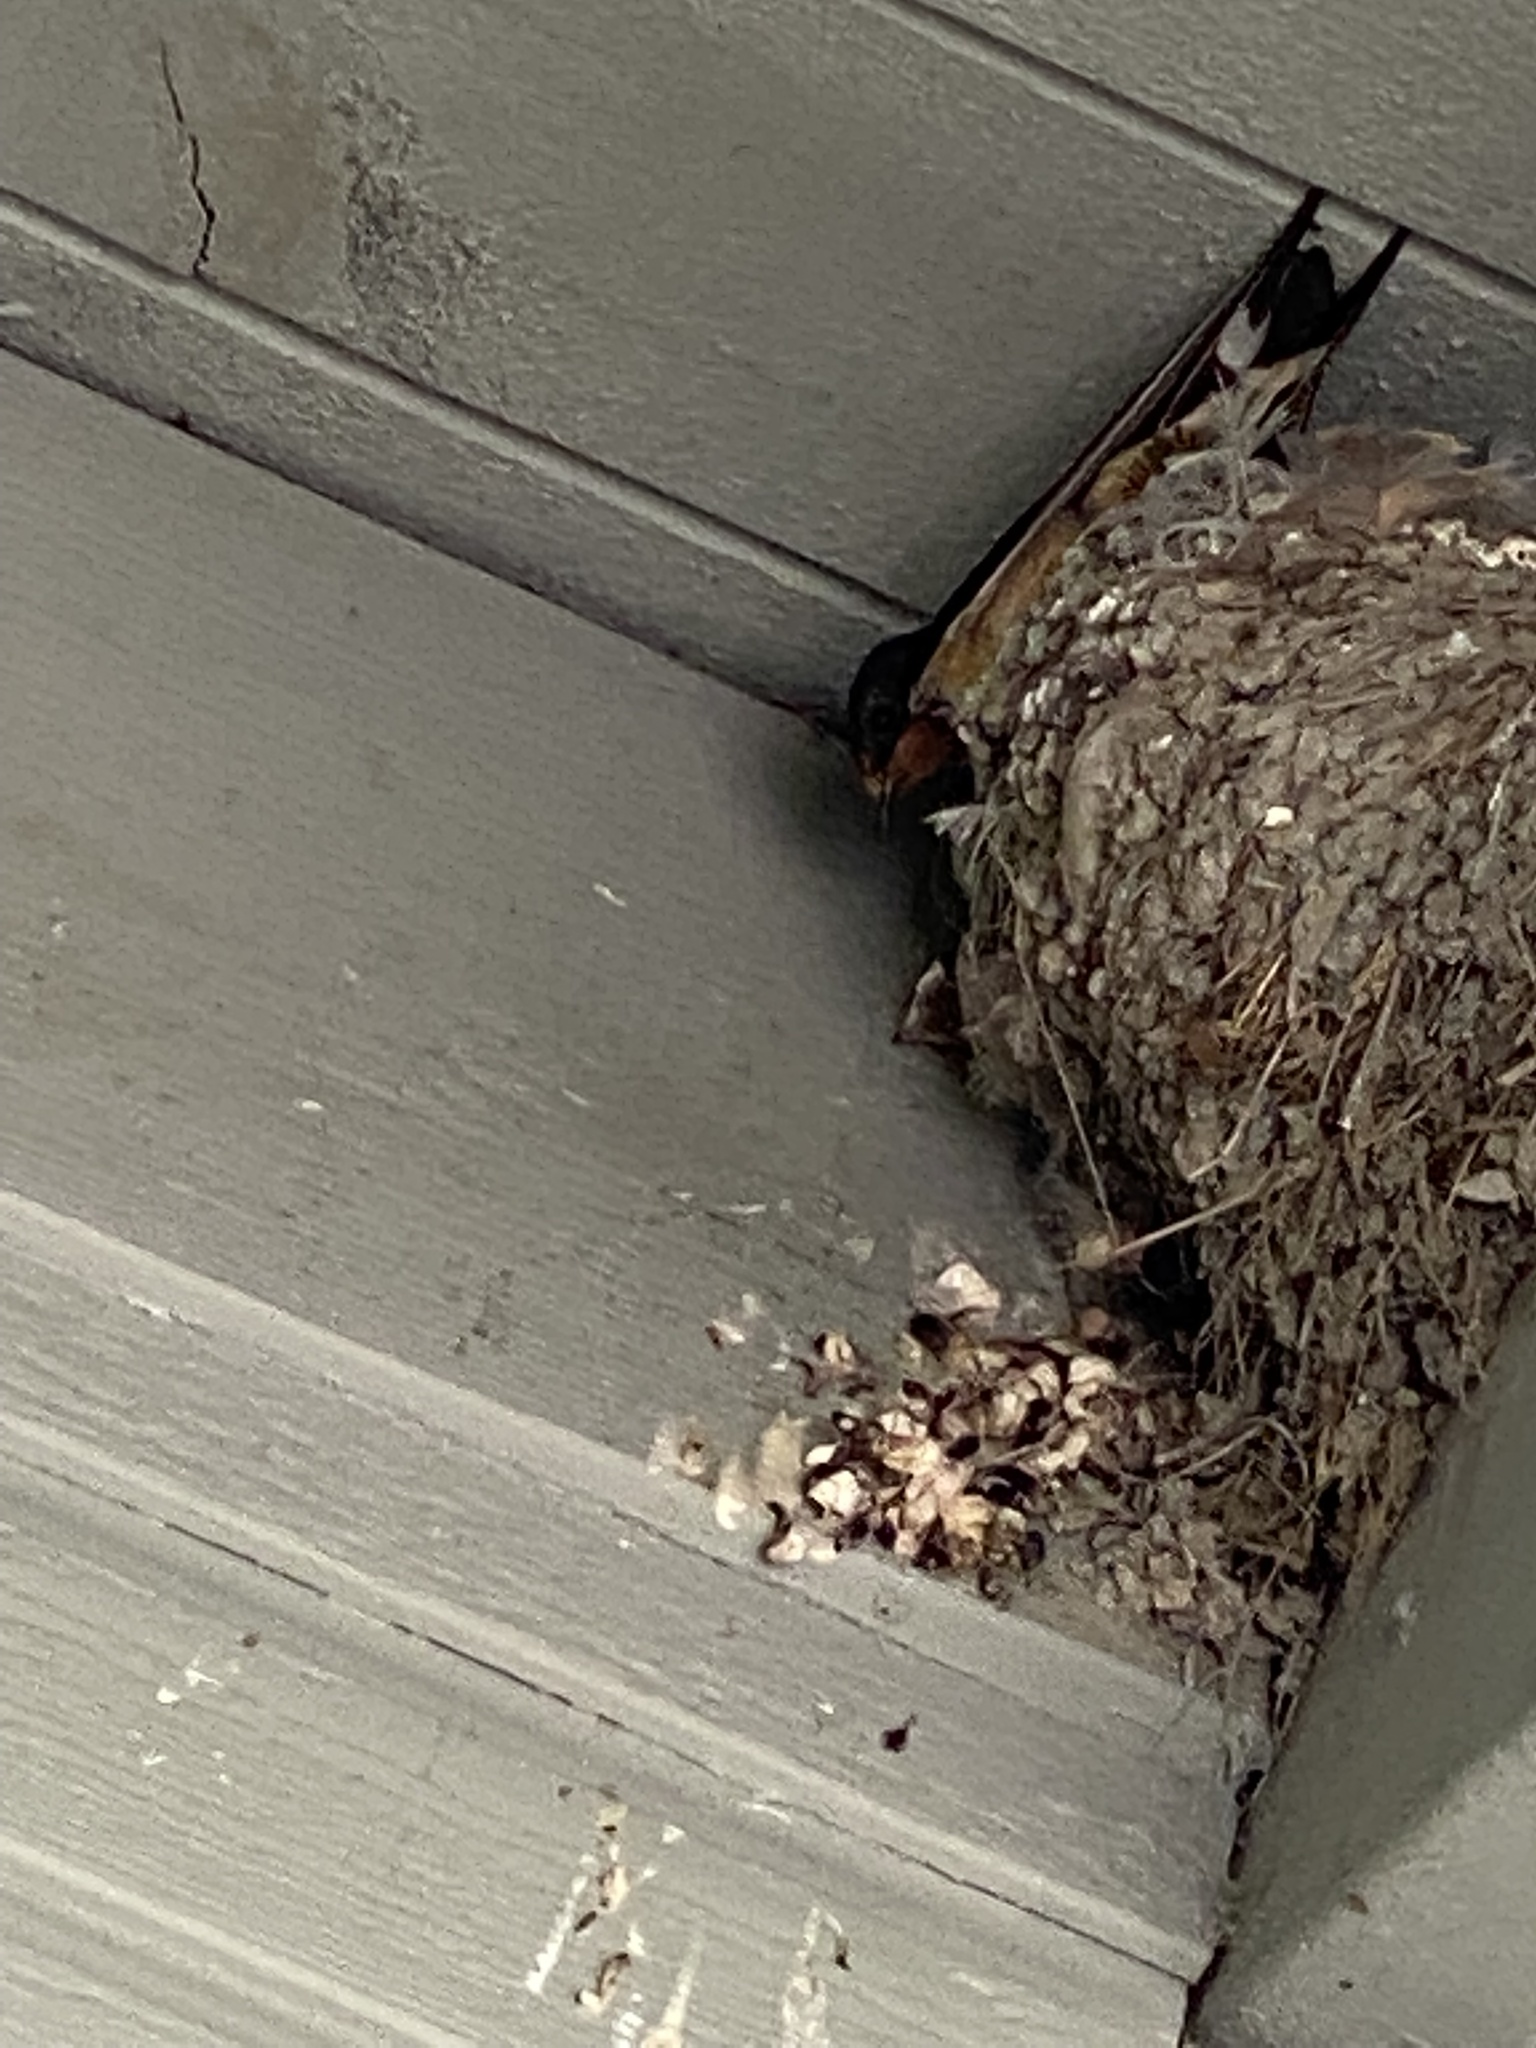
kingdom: Animalia
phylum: Chordata
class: Aves
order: Passeriformes
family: Hirundinidae
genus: Hirundo
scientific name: Hirundo rustica
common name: Barn swallow
